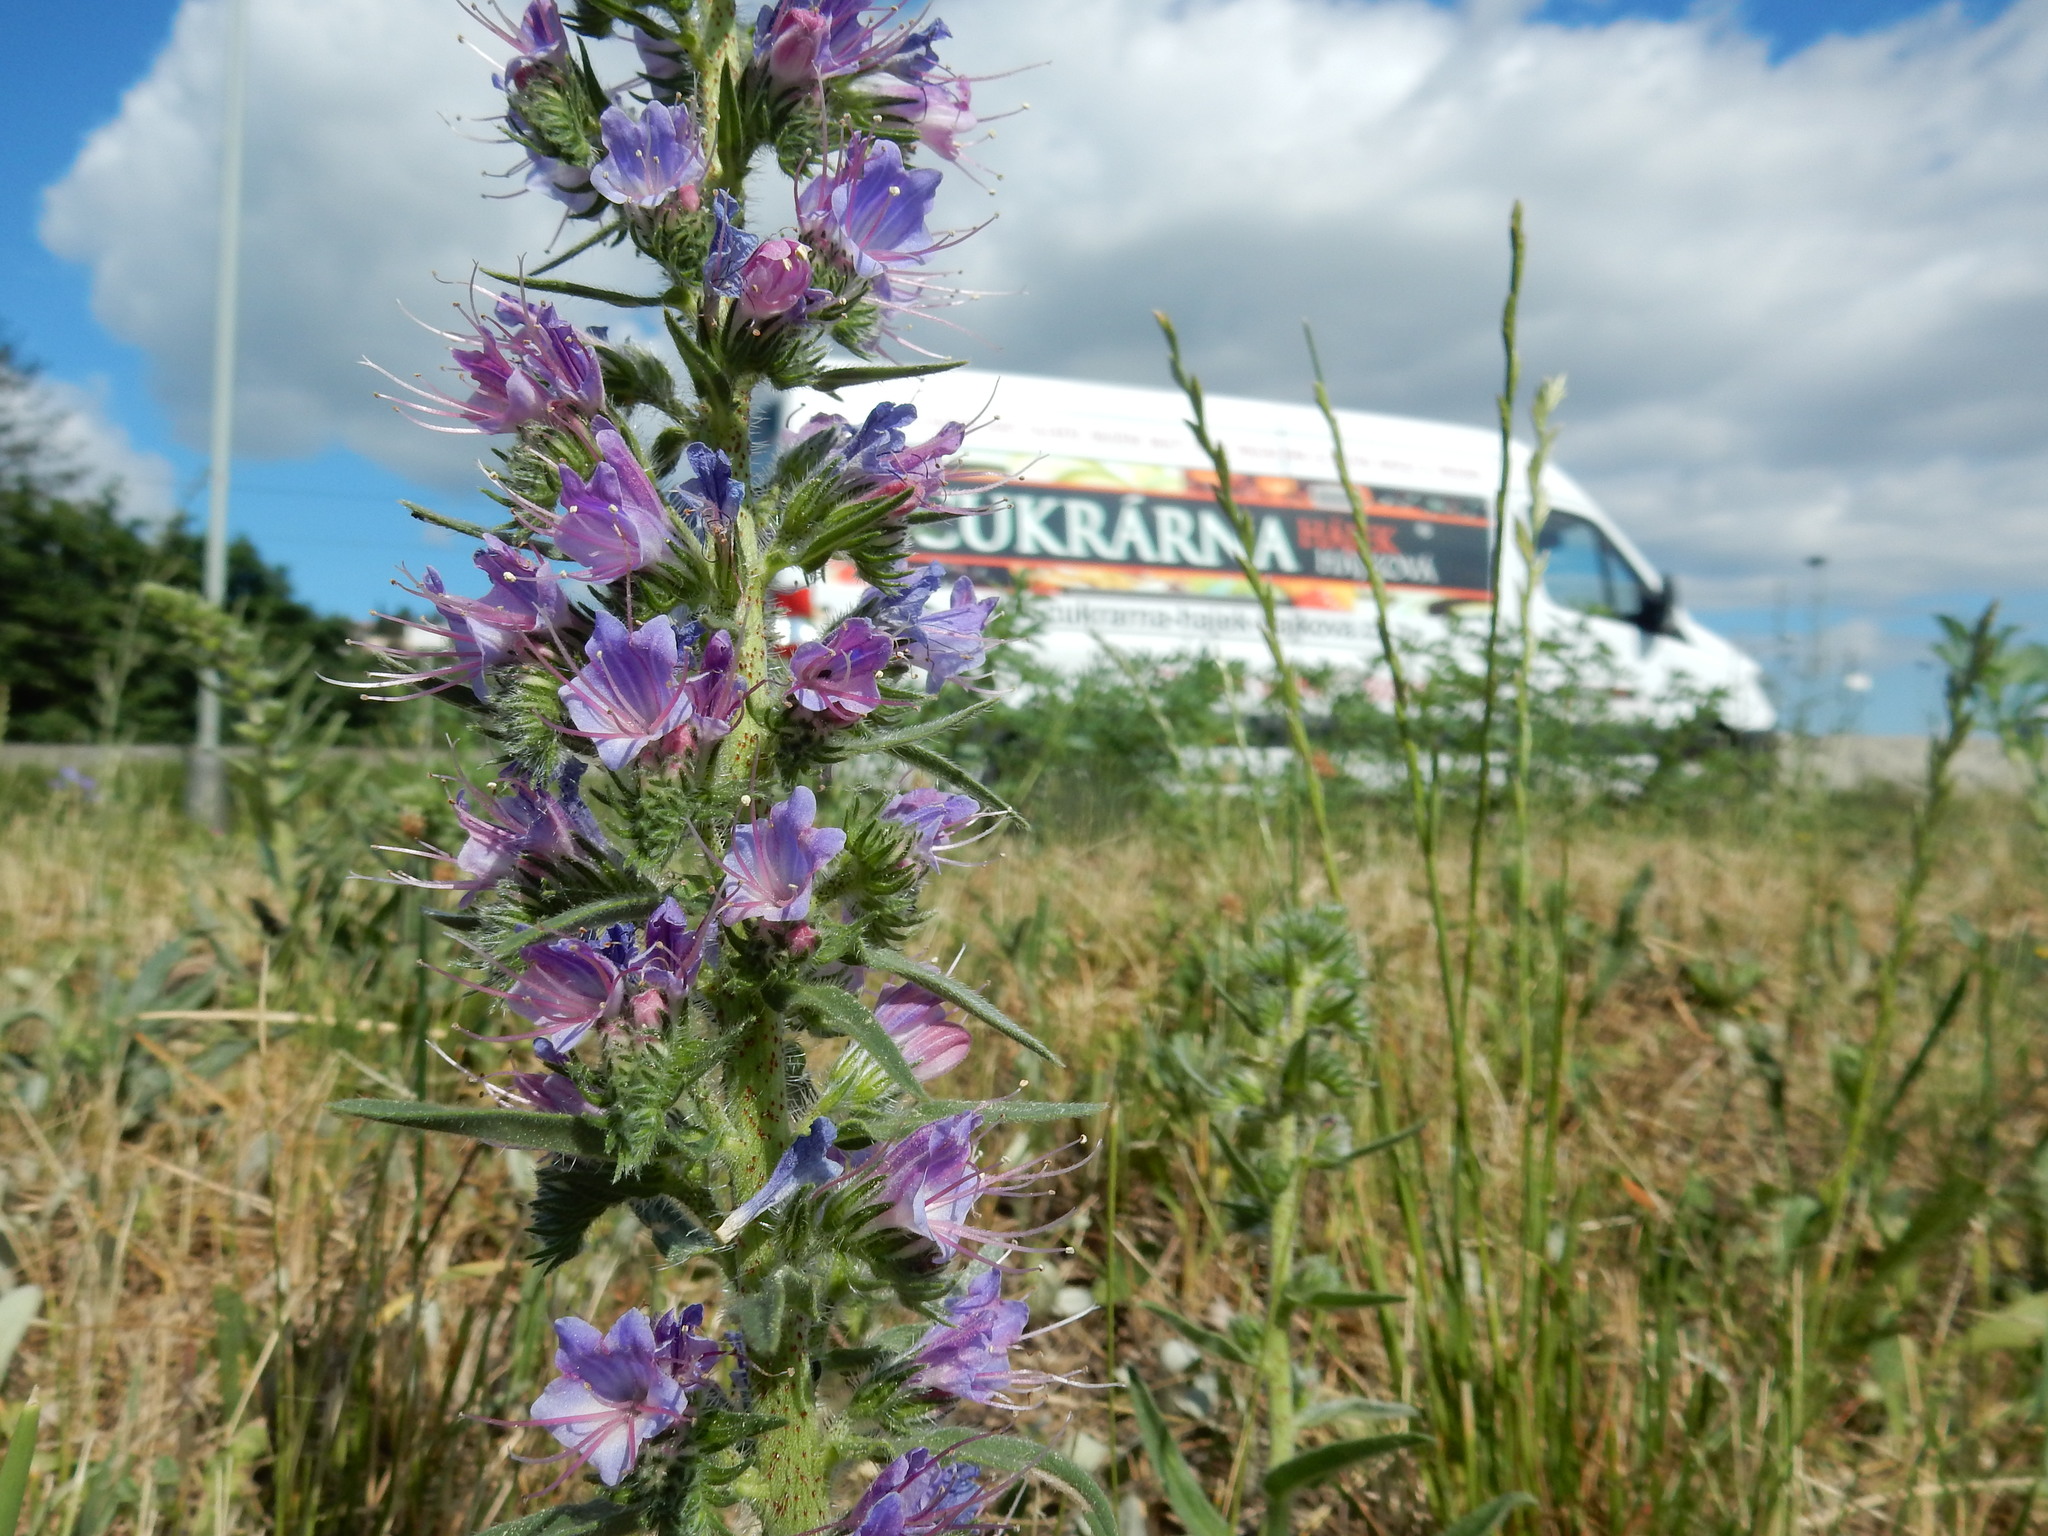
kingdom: Plantae
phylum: Tracheophyta
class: Magnoliopsida
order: Boraginales
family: Boraginaceae
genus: Echium
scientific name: Echium vulgare
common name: Common viper's bugloss
